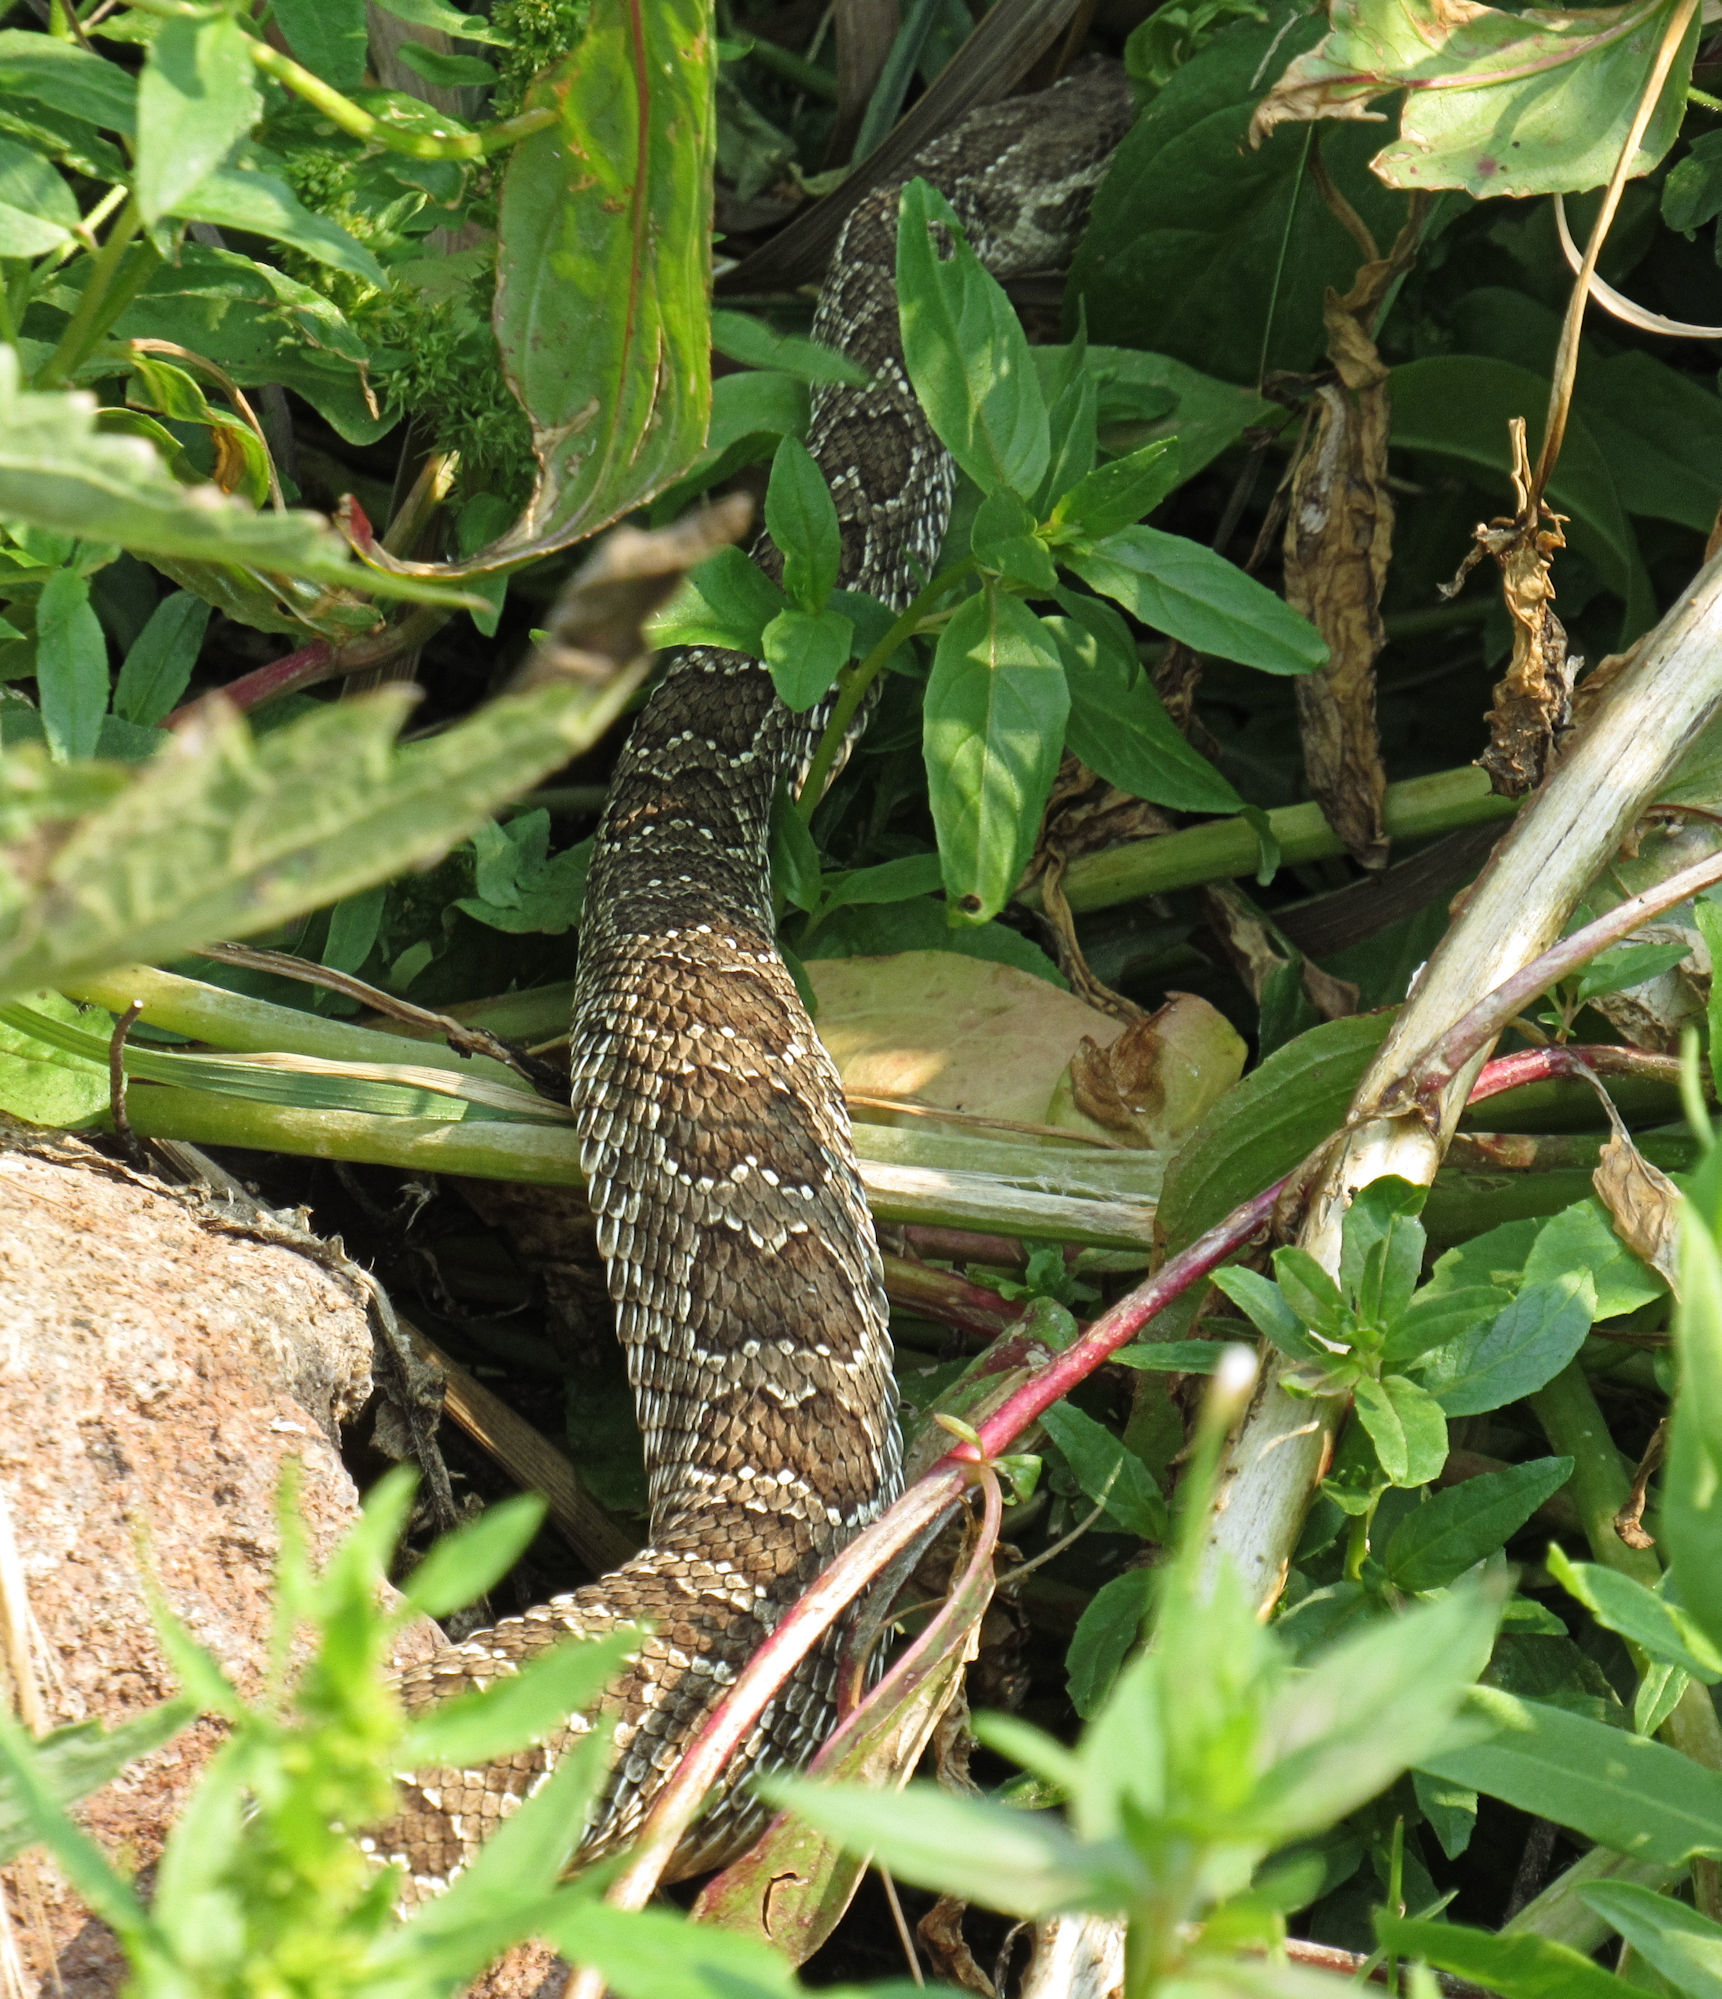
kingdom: Animalia
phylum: Chordata
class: Squamata
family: Viperidae
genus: Crotalus
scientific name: Crotalus viridis
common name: Prairie rattlesnake
